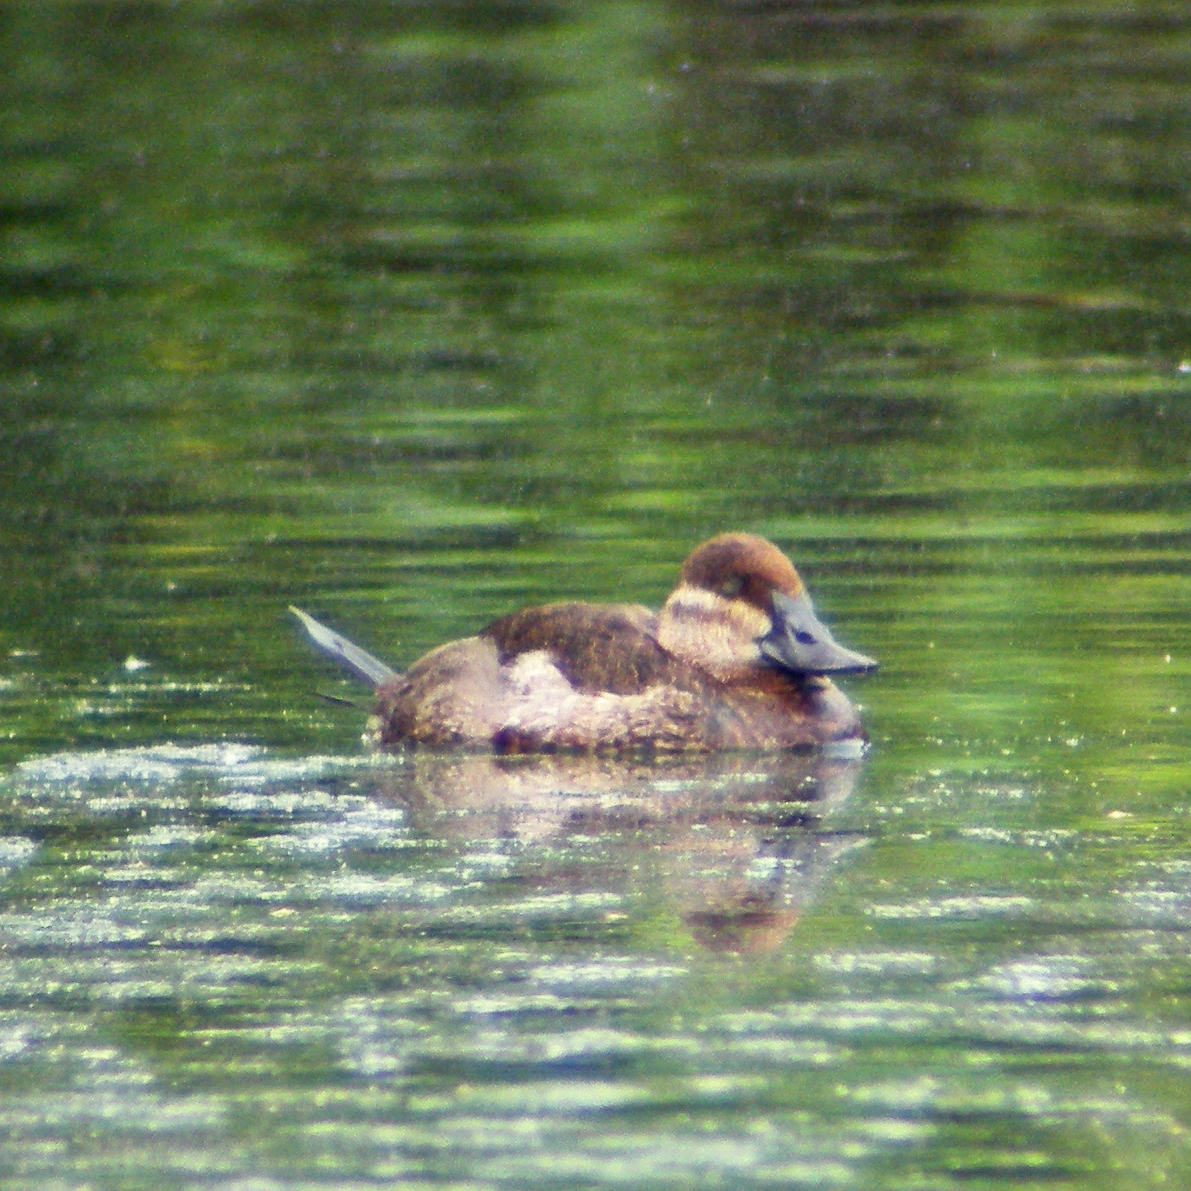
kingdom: Animalia
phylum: Chordata
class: Aves
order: Anseriformes
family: Anatidae
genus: Oxyura
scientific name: Oxyura jamaicensis
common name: Ruddy duck
